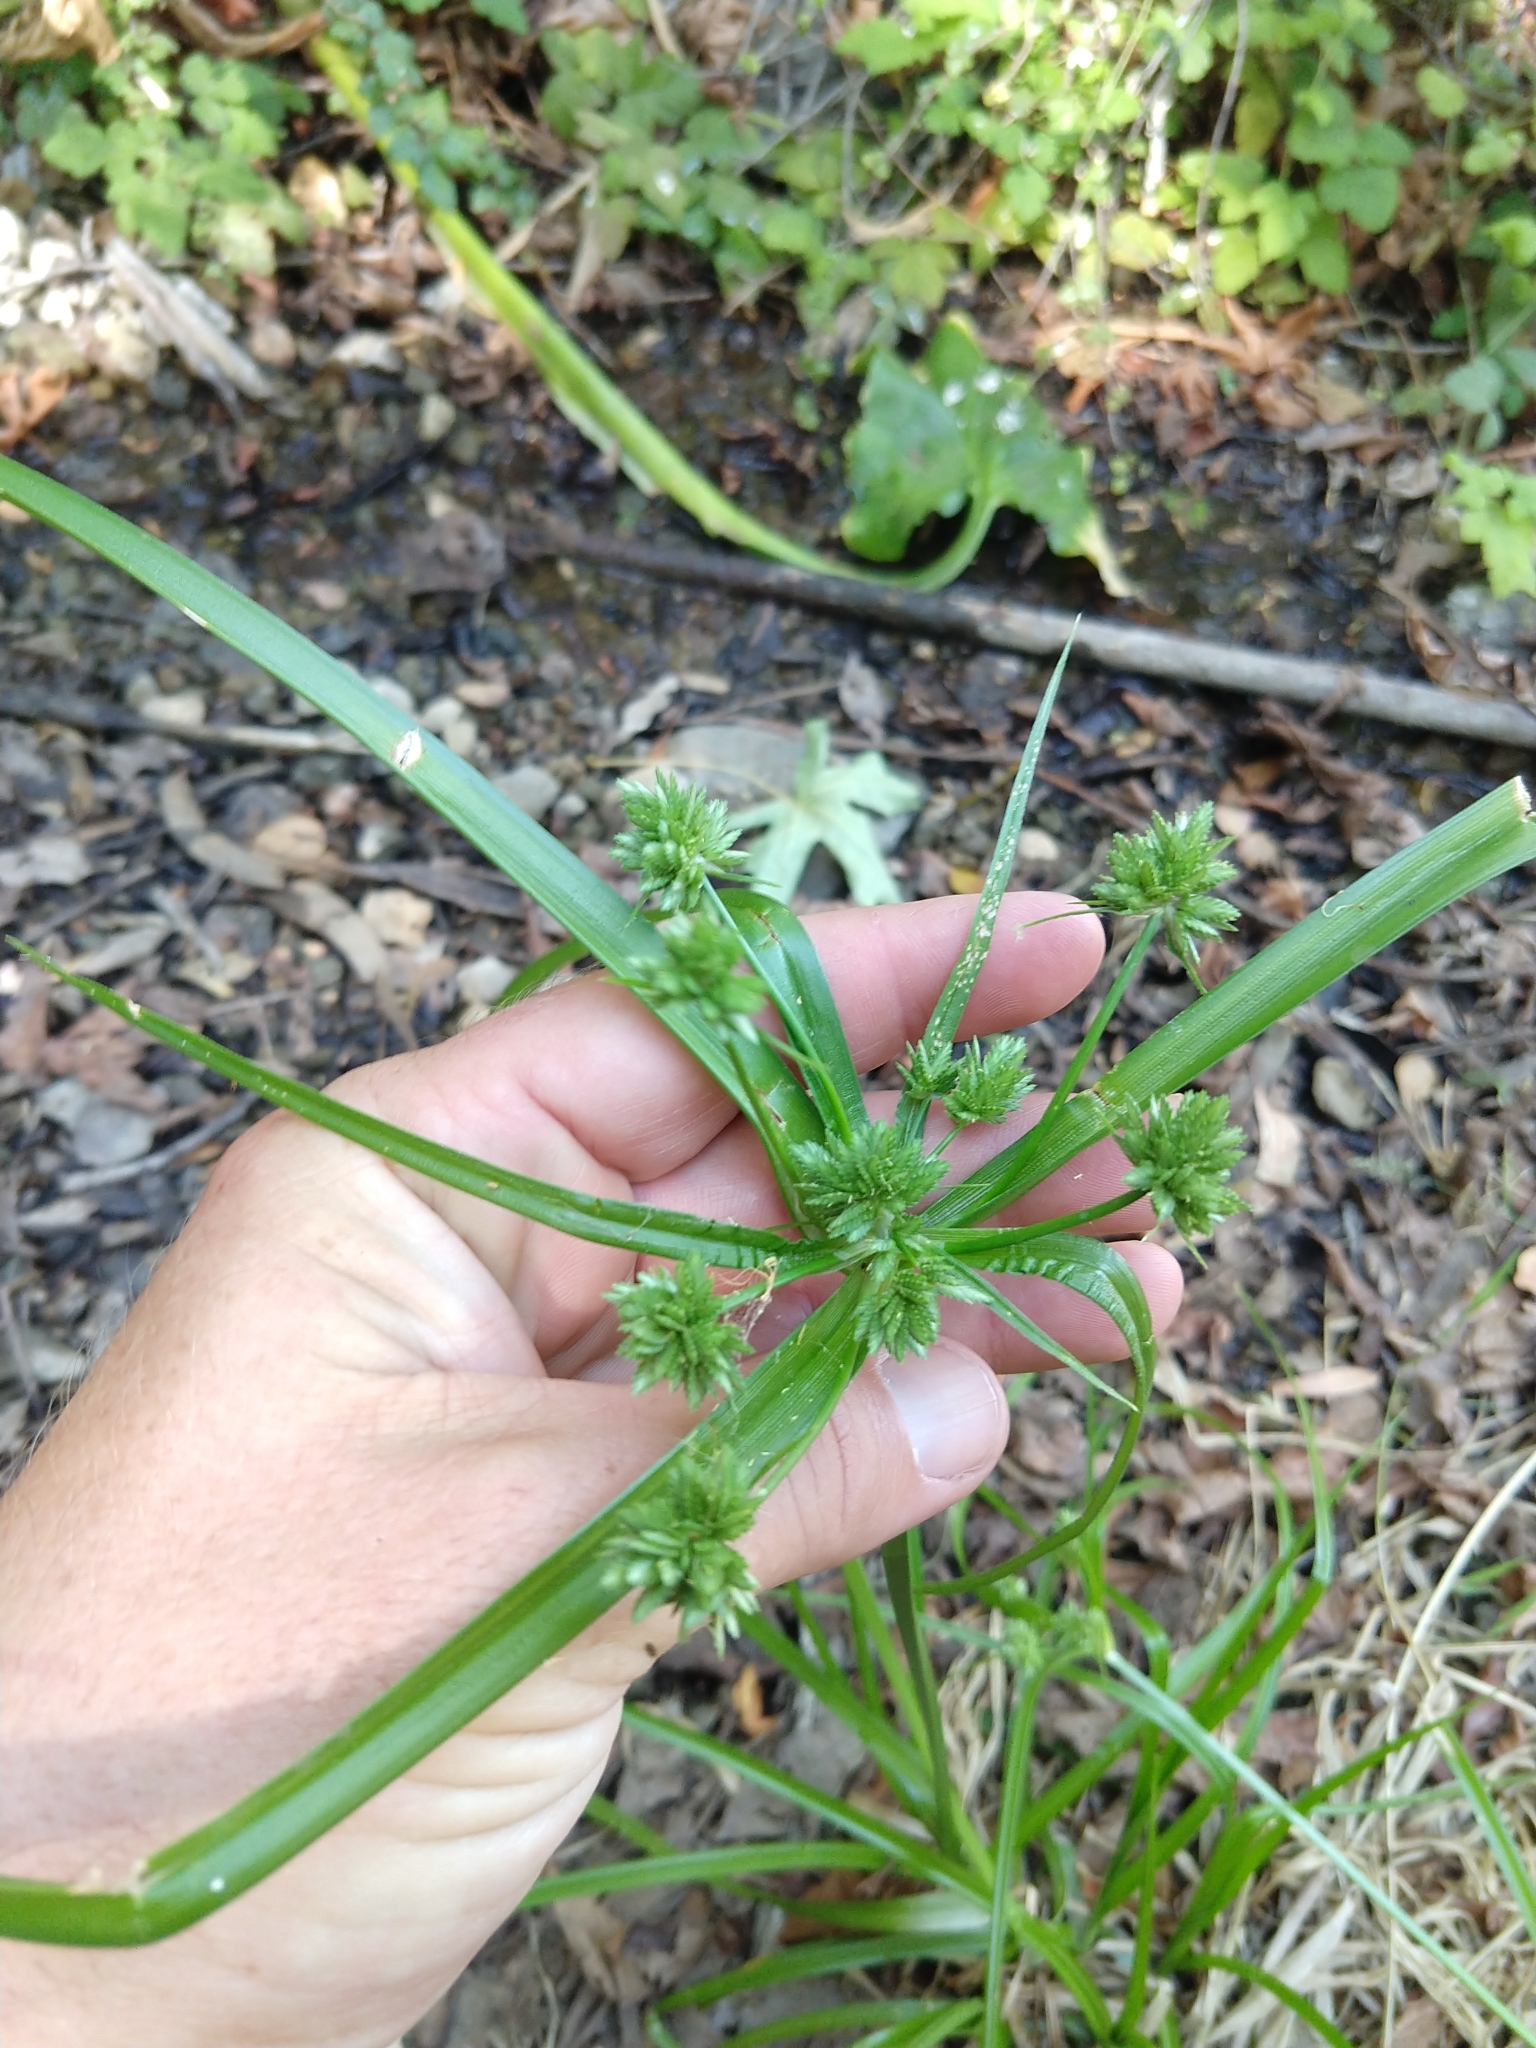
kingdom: Plantae
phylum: Tracheophyta
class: Liliopsida
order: Poales
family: Cyperaceae
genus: Cyperus
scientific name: Cyperus eragrostis
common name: Tall flatsedge
